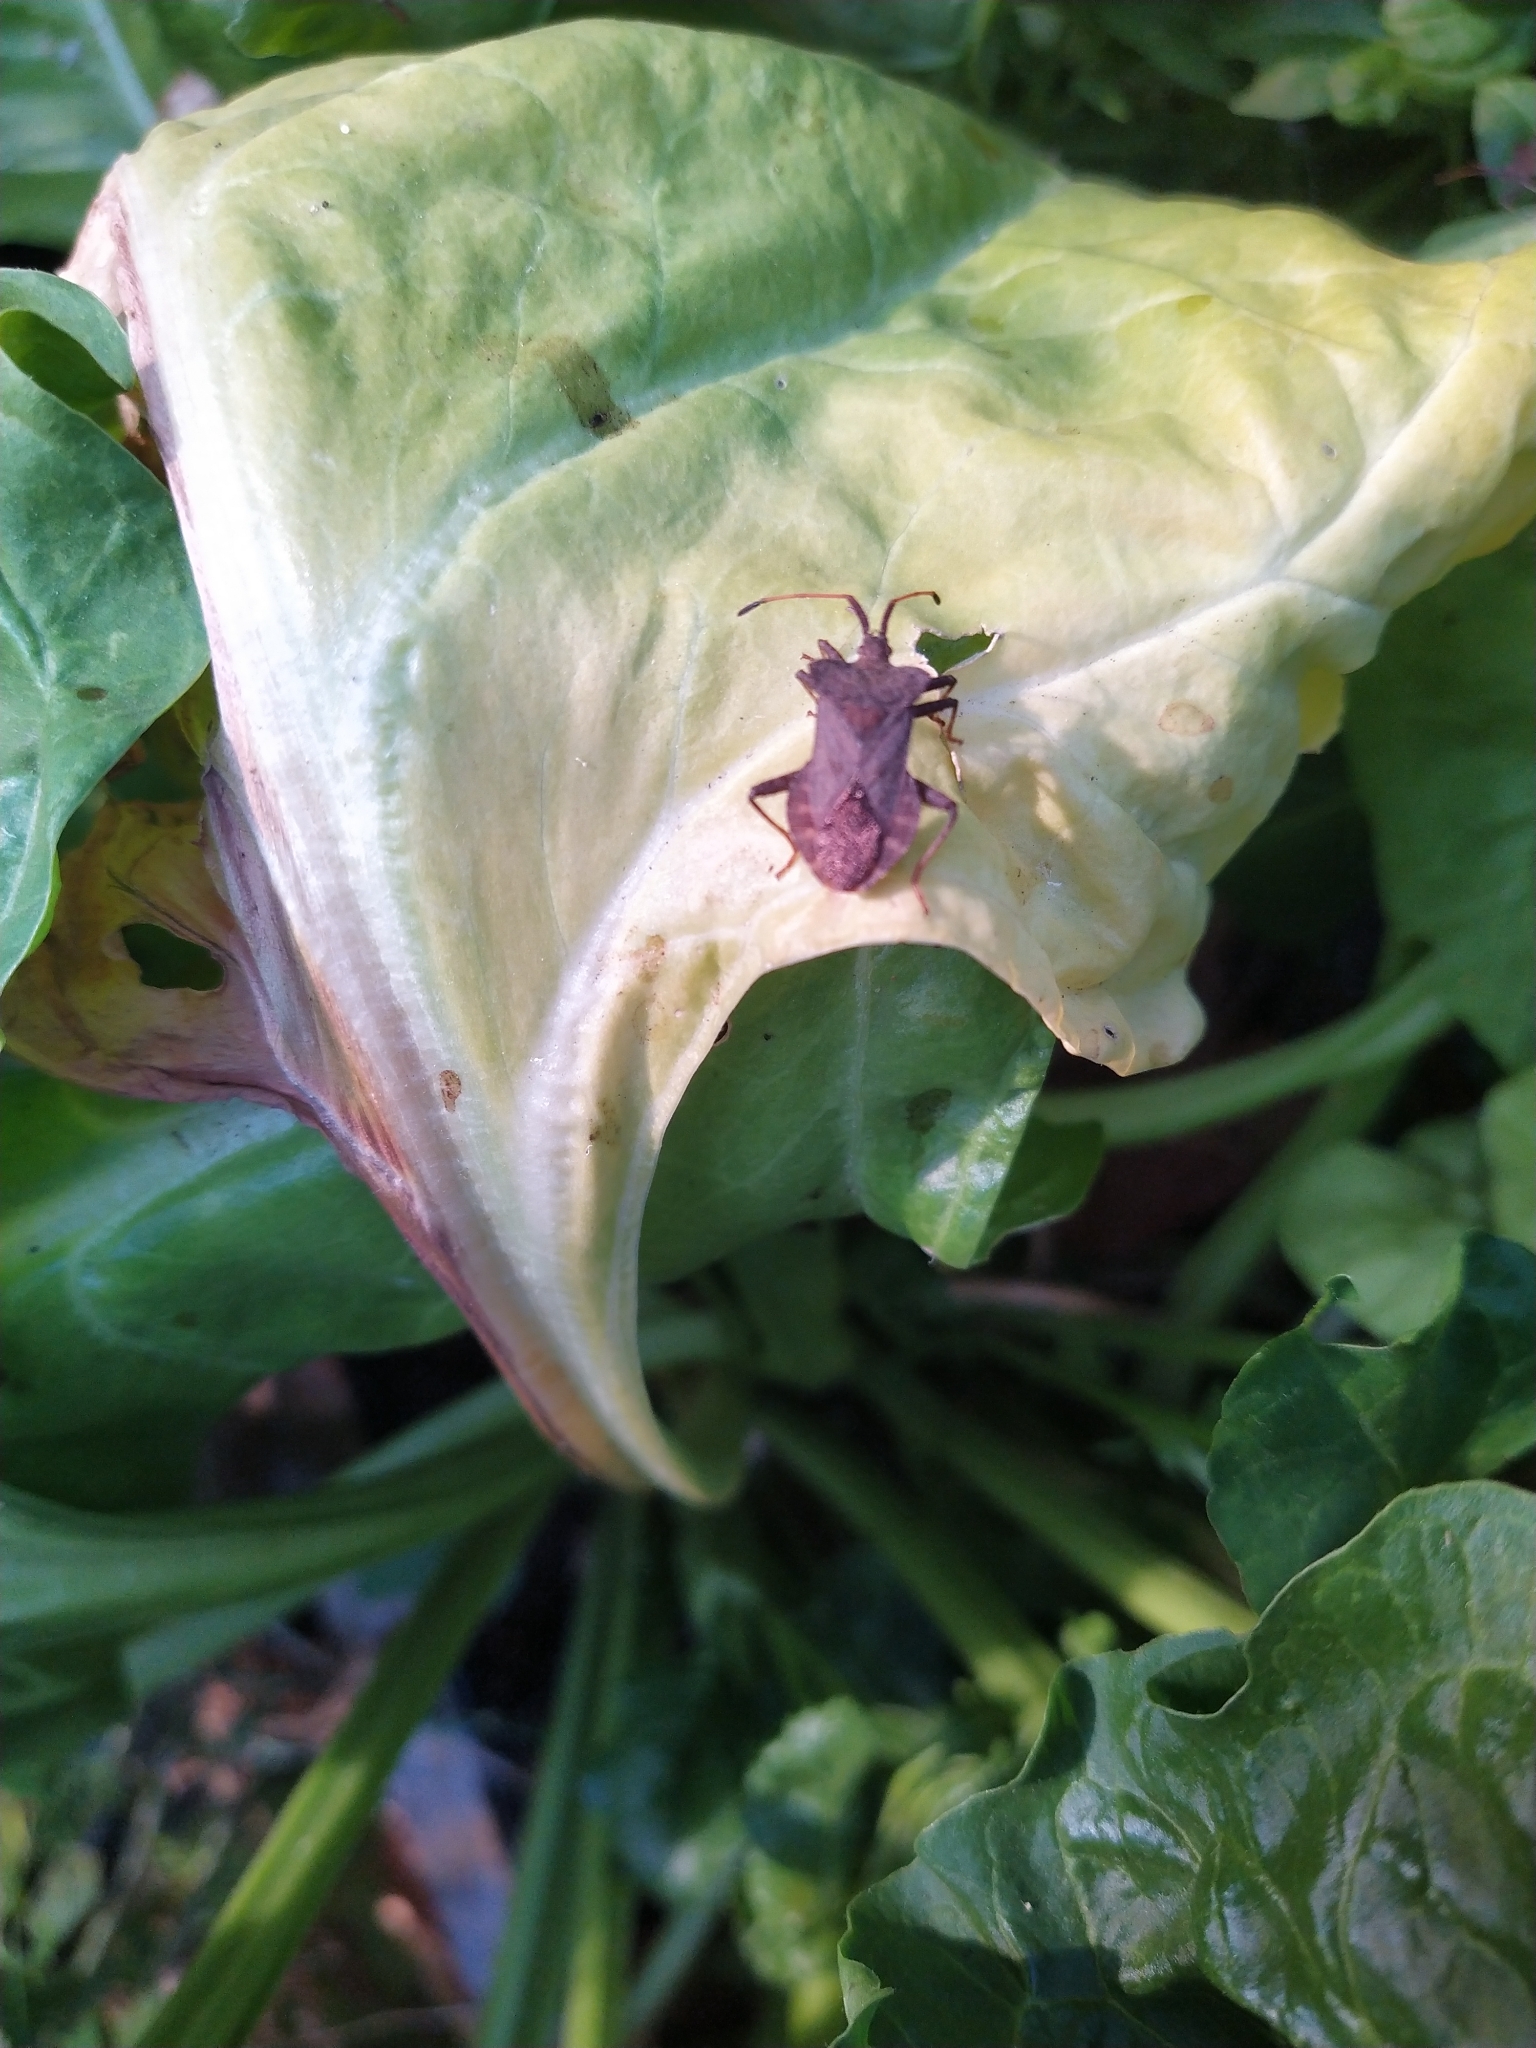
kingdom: Animalia
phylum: Arthropoda
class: Insecta
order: Hemiptera
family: Coreidae
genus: Coreus
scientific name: Coreus marginatus
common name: Dock bug
